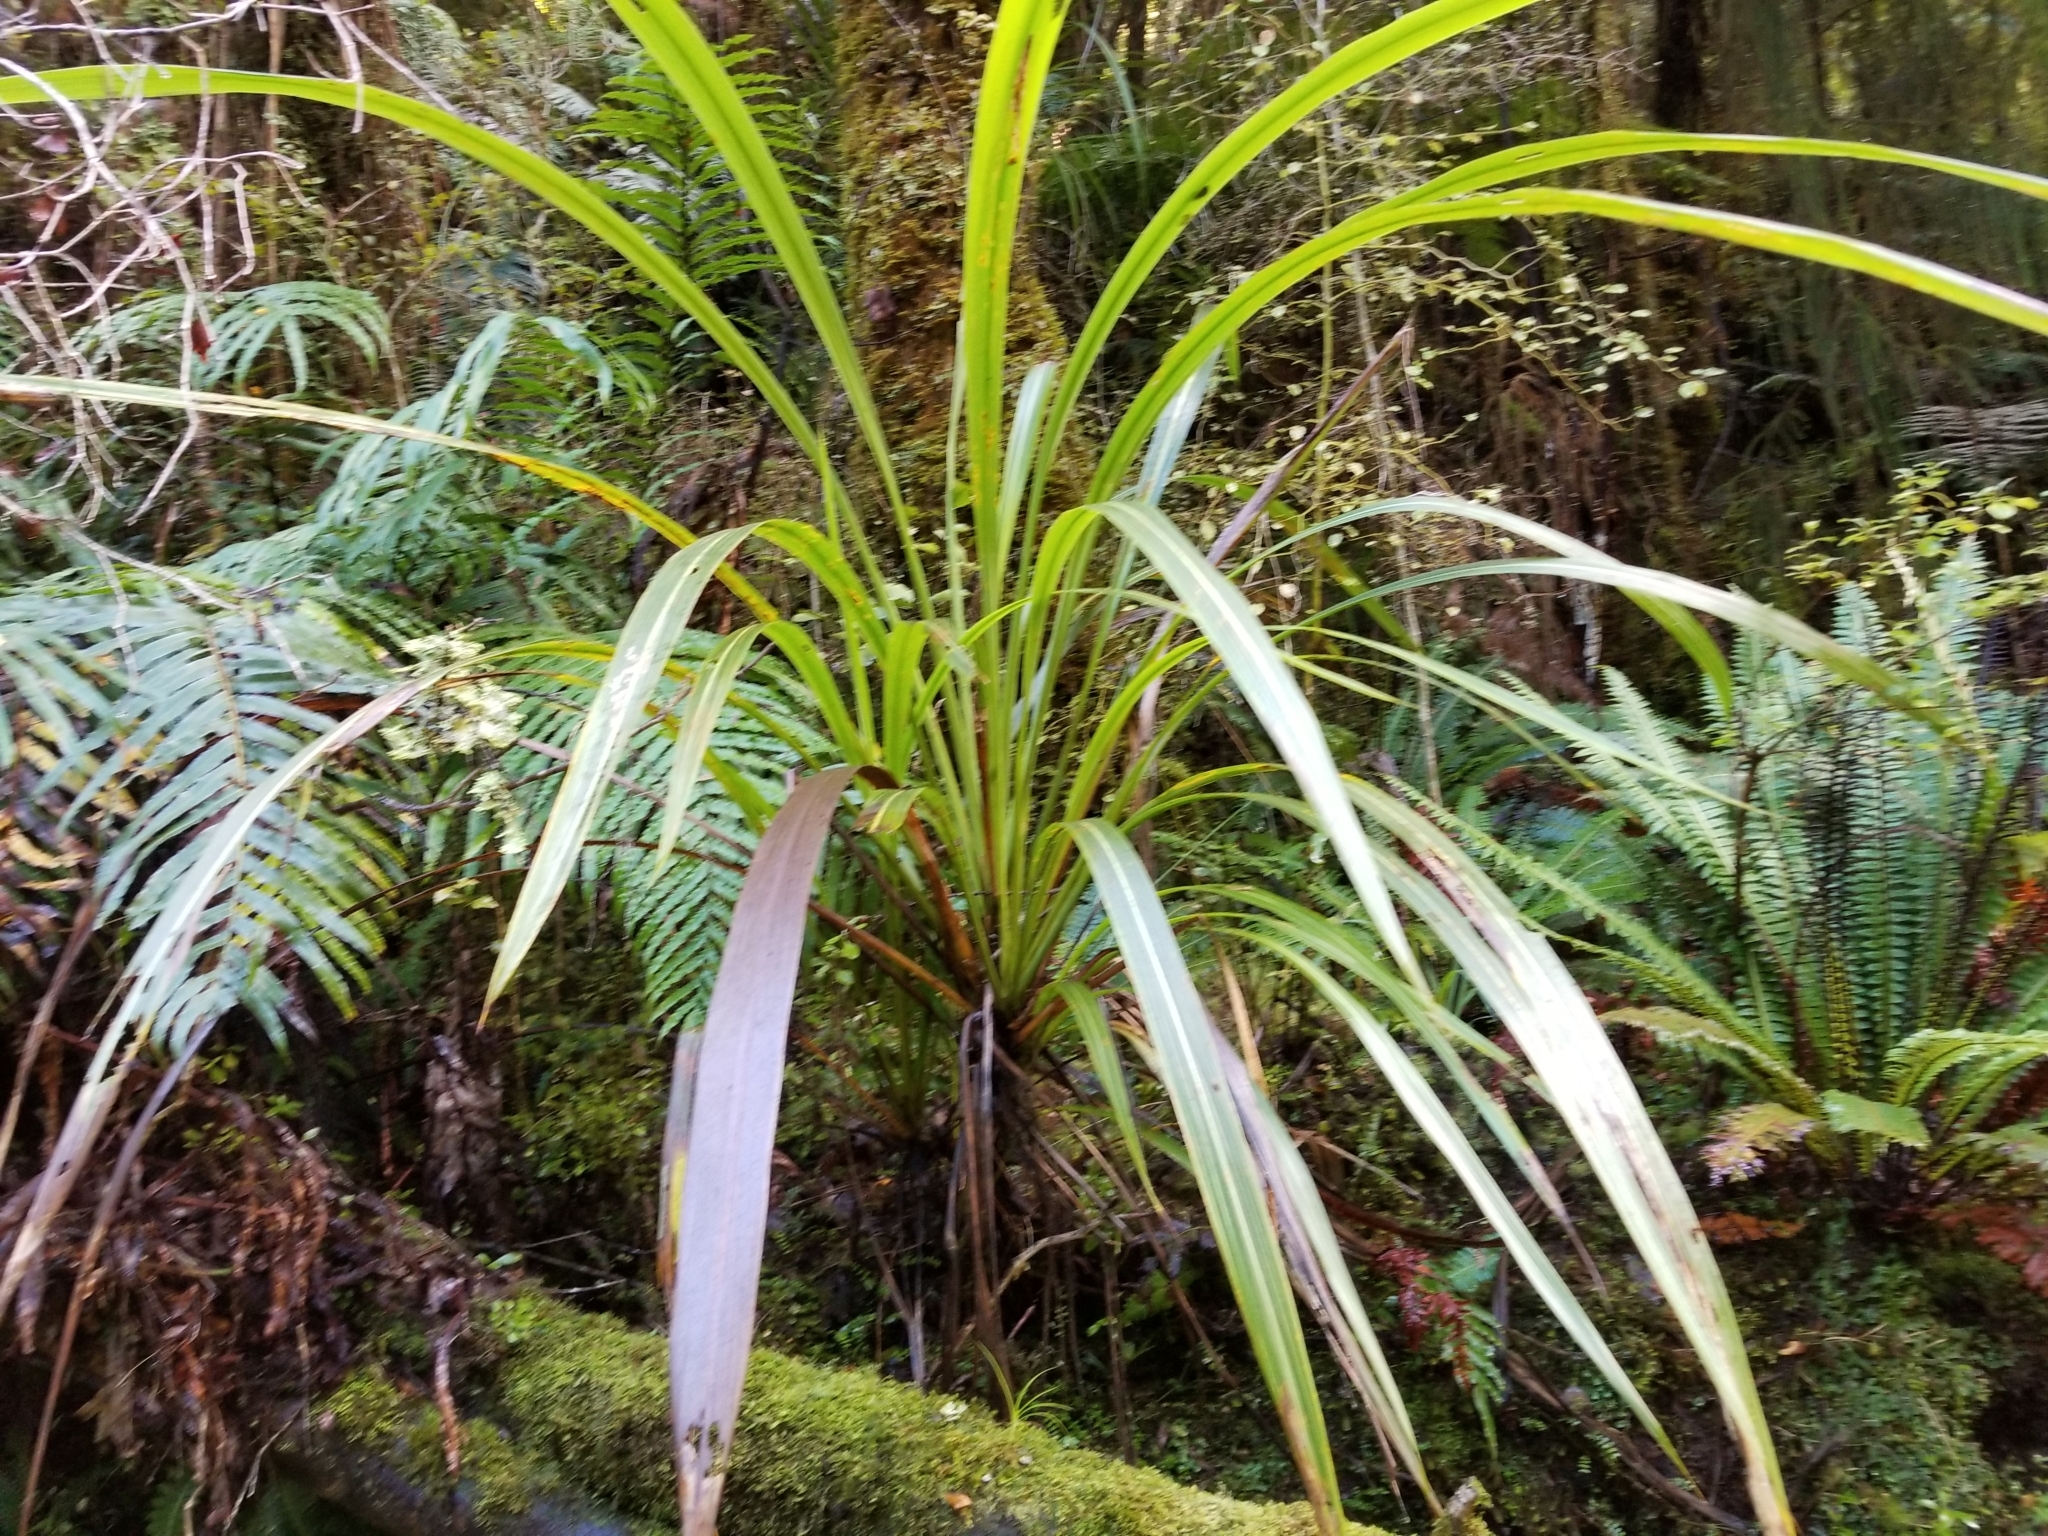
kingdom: Plantae
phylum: Tracheophyta
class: Liliopsida
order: Asparagales
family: Asparagaceae
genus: Cordyline
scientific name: Cordyline banksii
